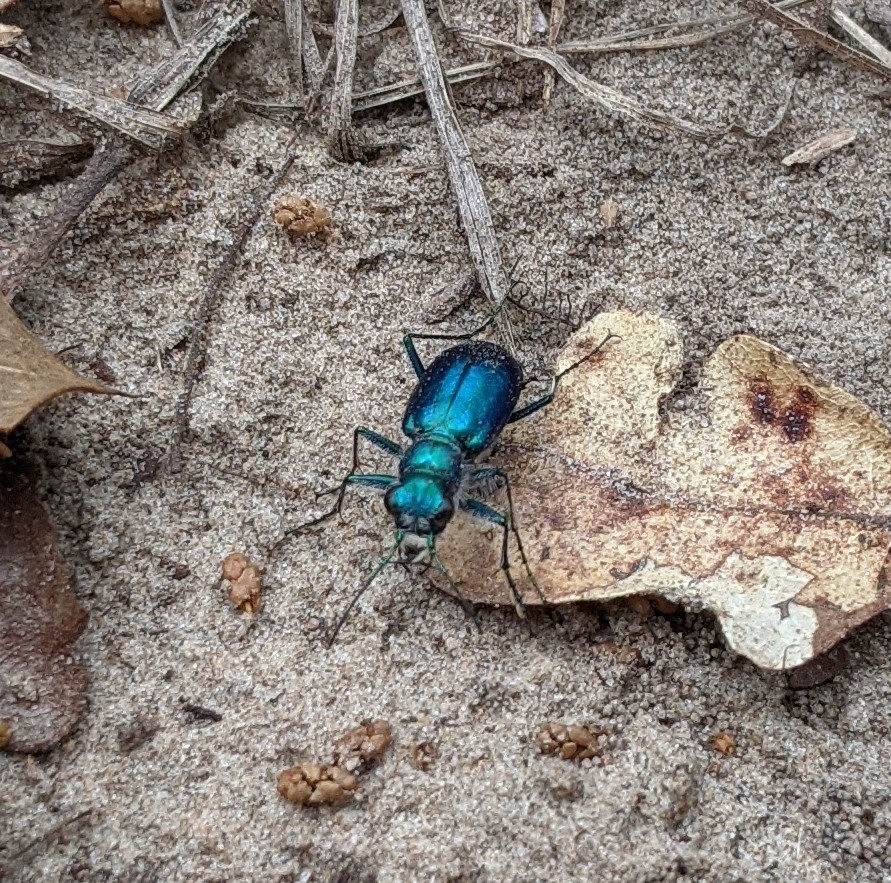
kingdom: Animalia
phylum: Arthropoda
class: Insecta
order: Coleoptera
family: Carabidae
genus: Cicindela
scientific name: Cicindela scutellaris
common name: Festive tiger beetle
